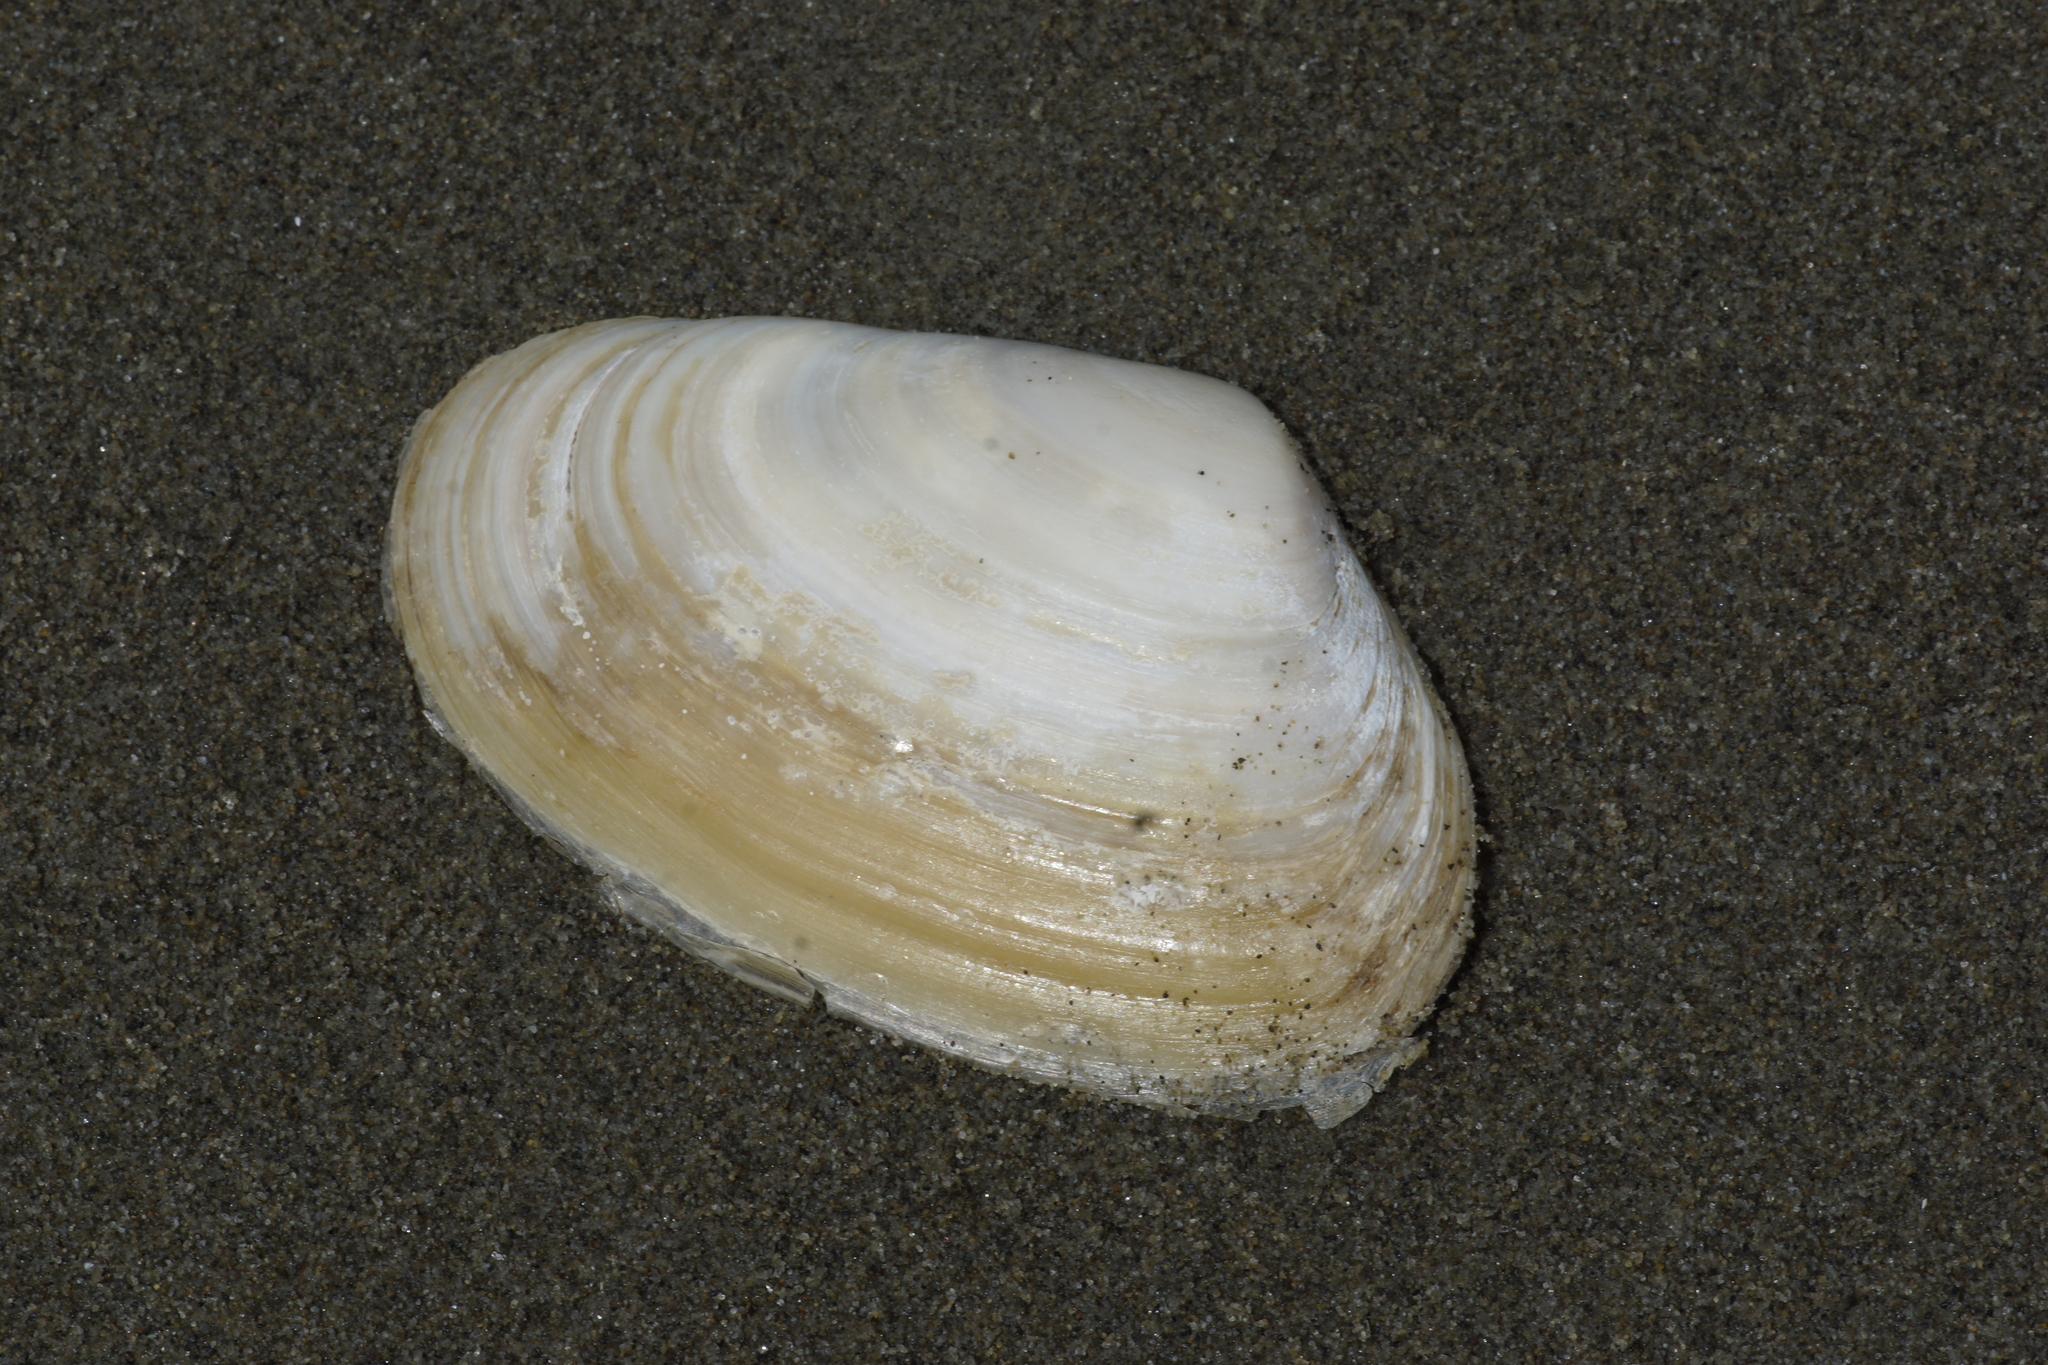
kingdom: Animalia
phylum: Mollusca
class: Bivalvia
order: Venerida
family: Mesodesmatidae
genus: Paphies
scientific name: Paphies donacina
